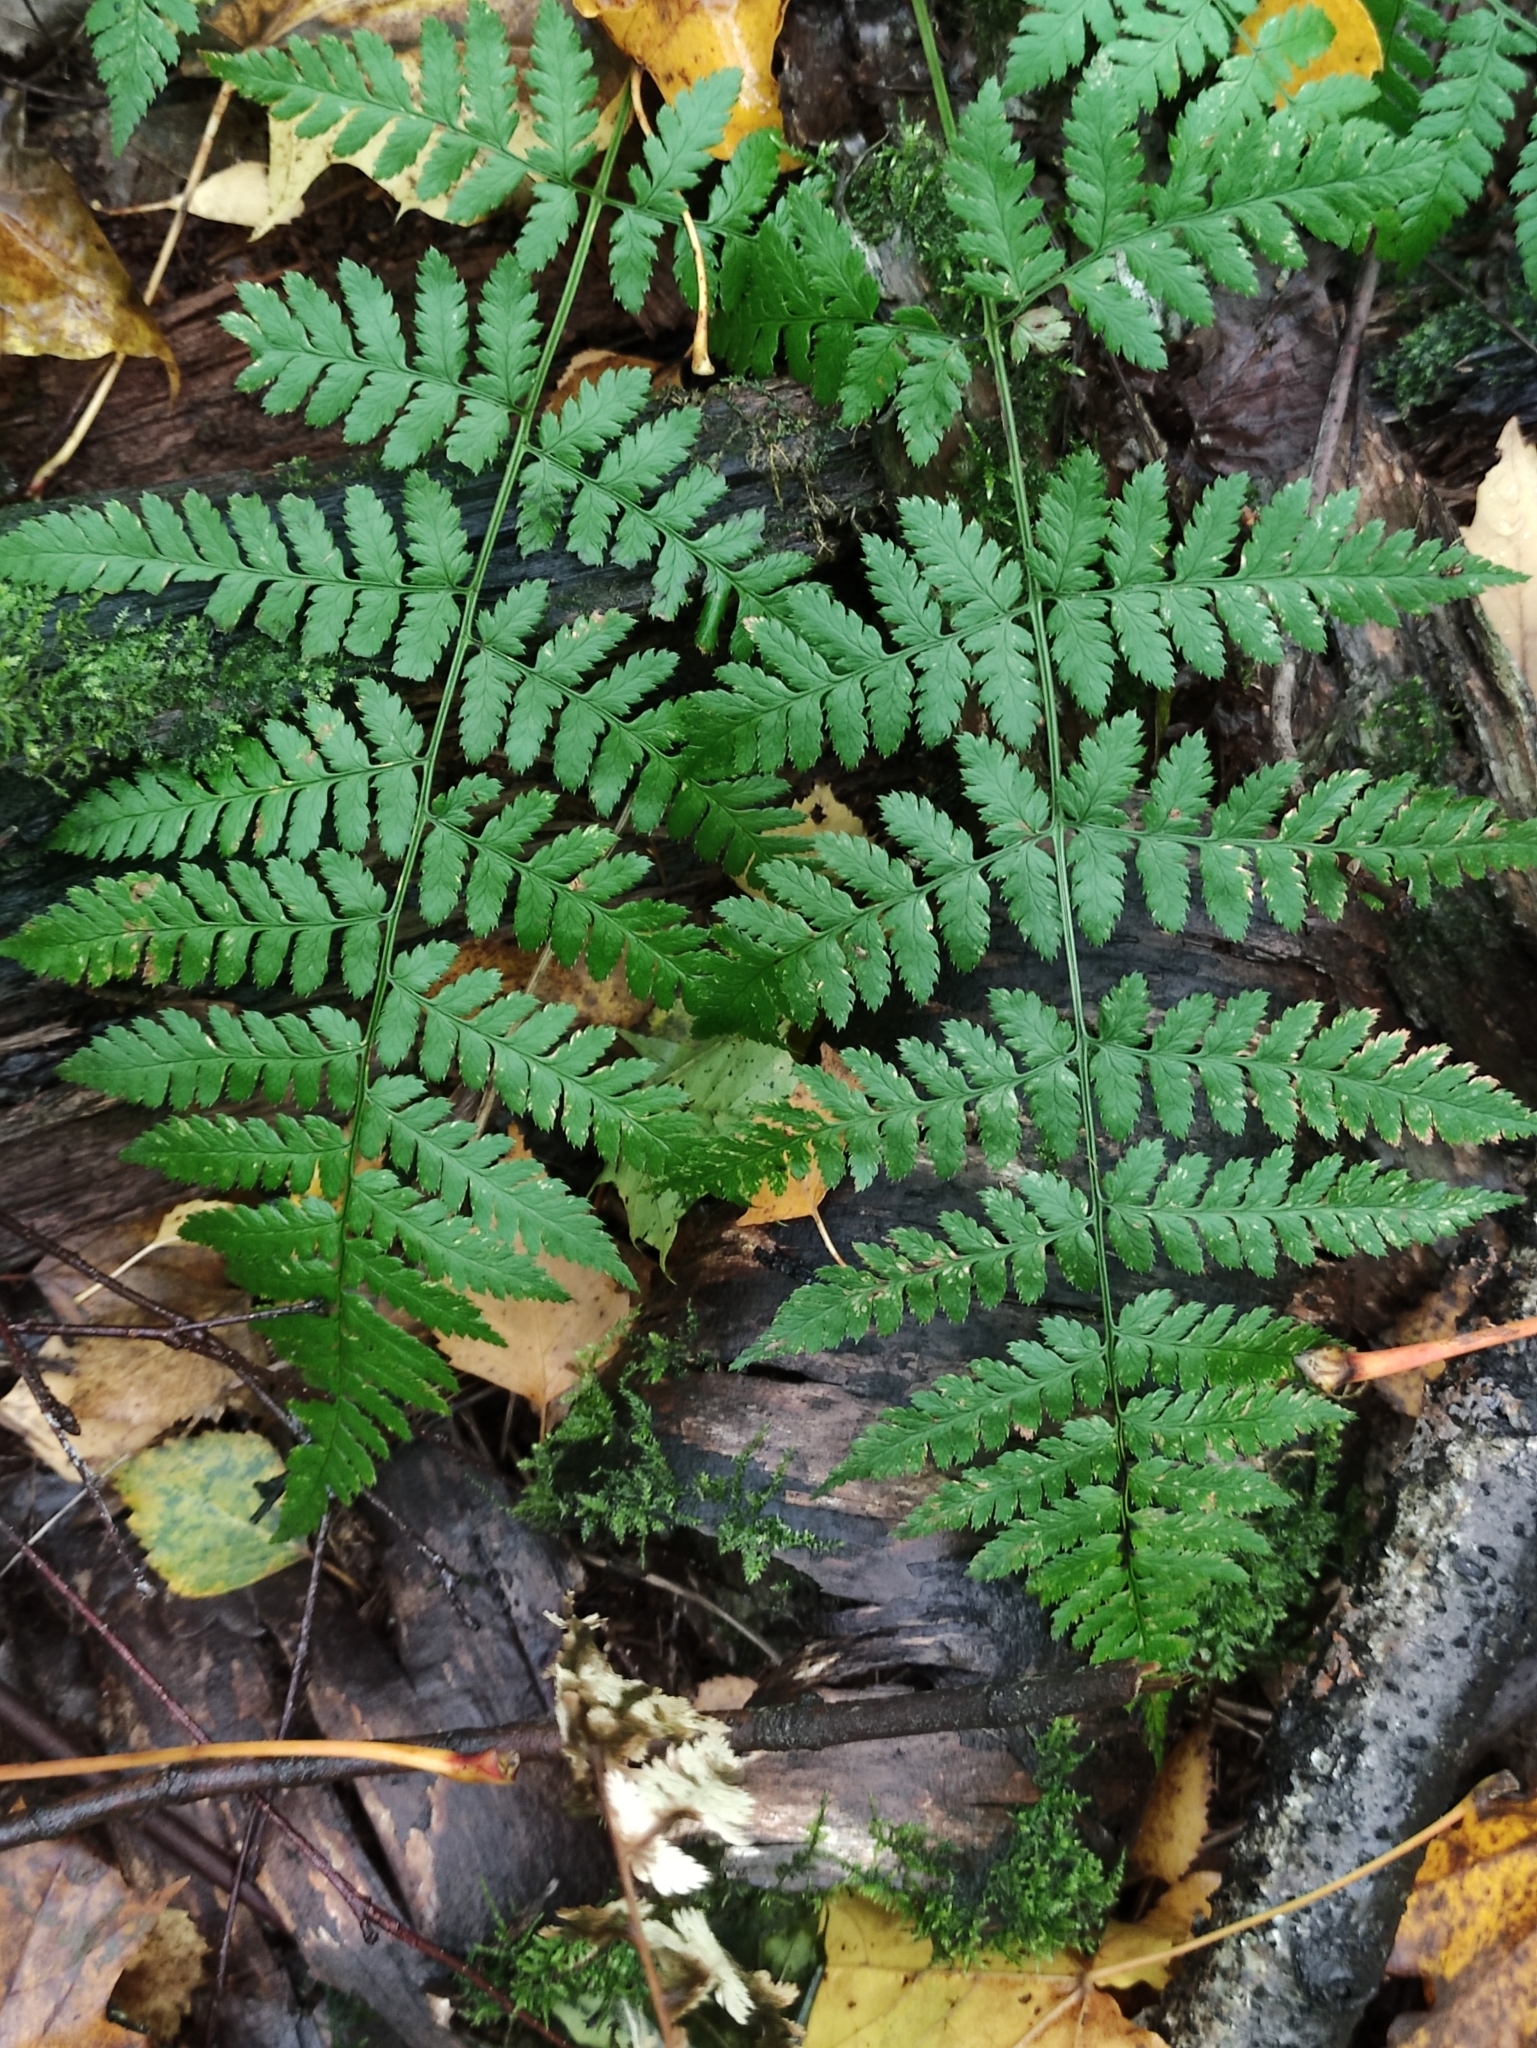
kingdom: Plantae
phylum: Tracheophyta
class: Polypodiopsida
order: Polypodiales
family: Dryopteridaceae
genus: Dryopteris
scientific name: Dryopteris carthusiana
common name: Narrow buckler-fern
